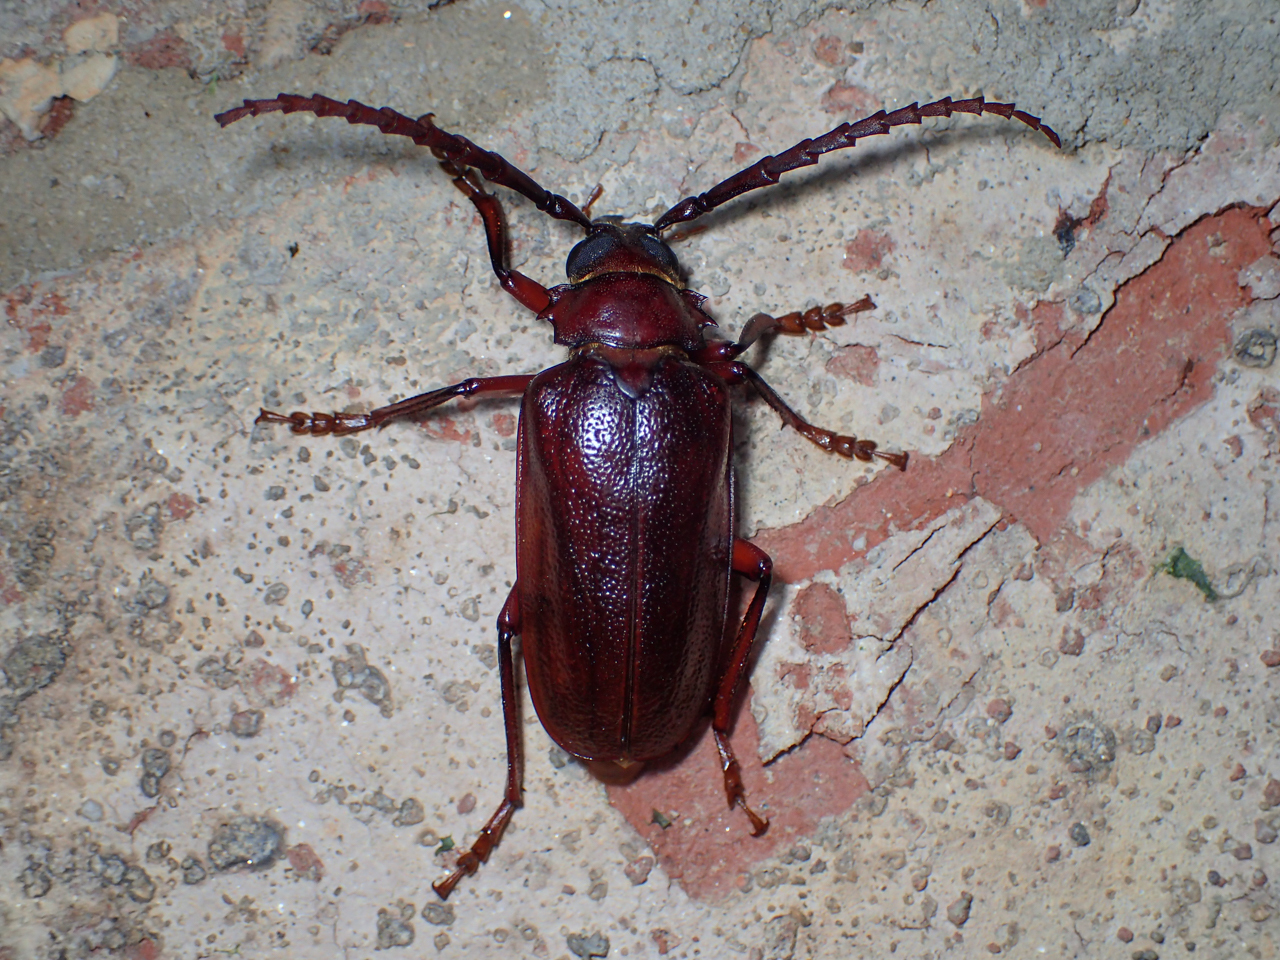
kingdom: Animalia
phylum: Arthropoda
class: Insecta
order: Coleoptera
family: Cerambycidae
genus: Prionus
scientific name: Prionus pocularis
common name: Tooth-necked longhorn beetle
